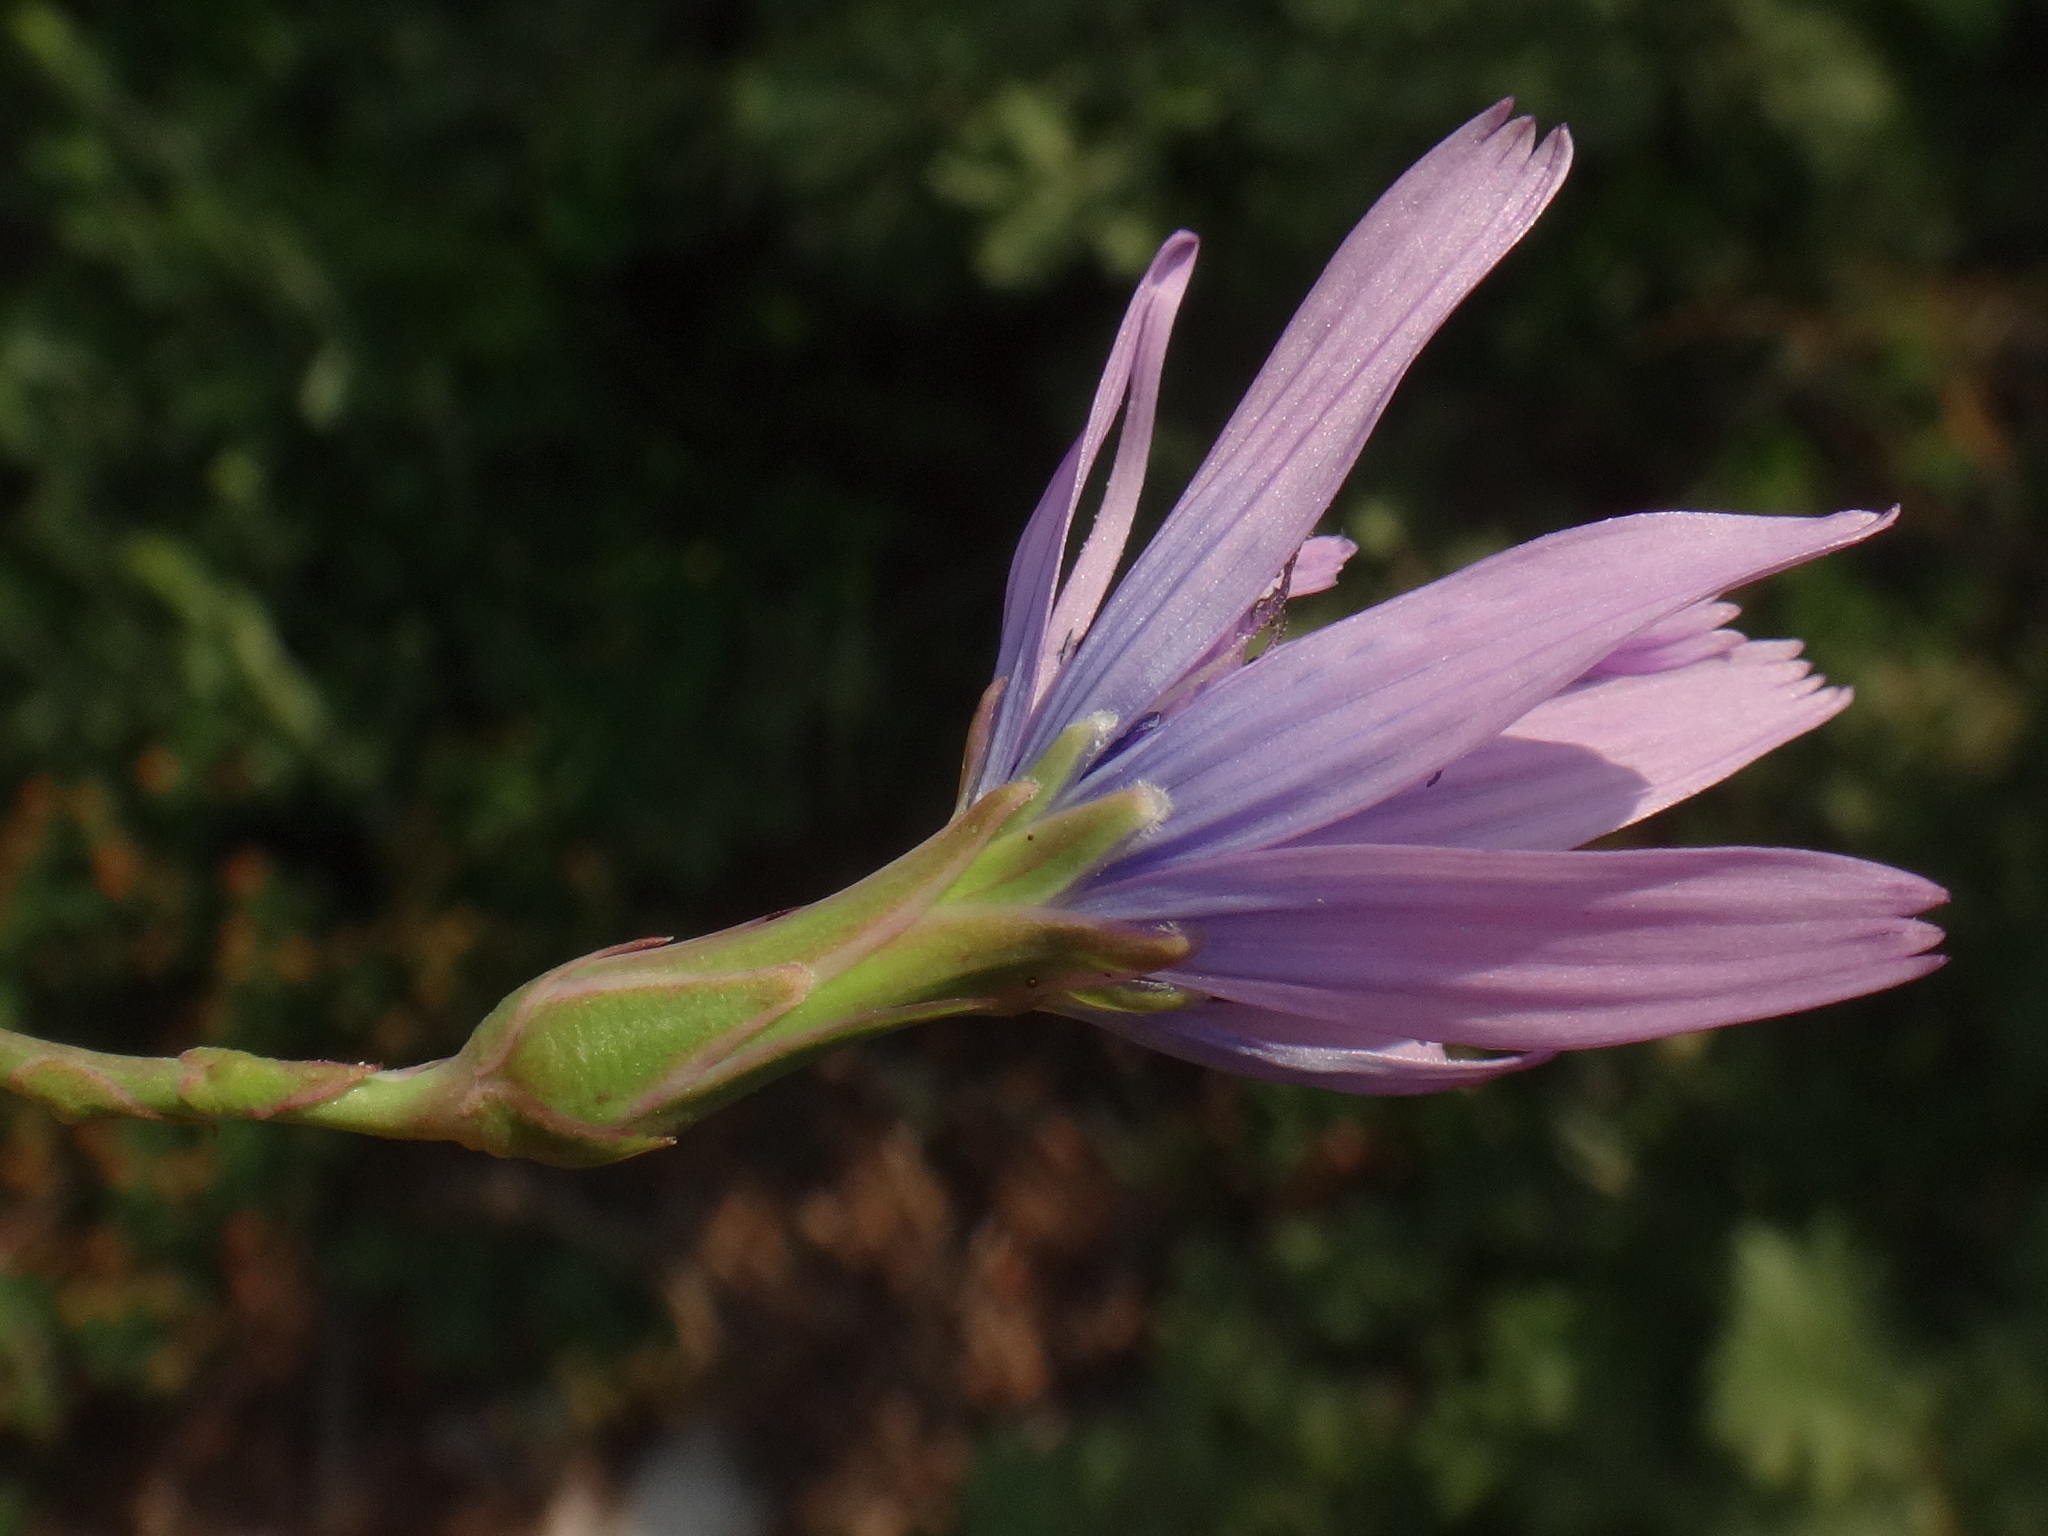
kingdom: Plantae
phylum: Tracheophyta
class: Magnoliopsida
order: Asterales
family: Asteraceae
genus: Lactuca
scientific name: Lactuca perennis
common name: Mountain lettuce
